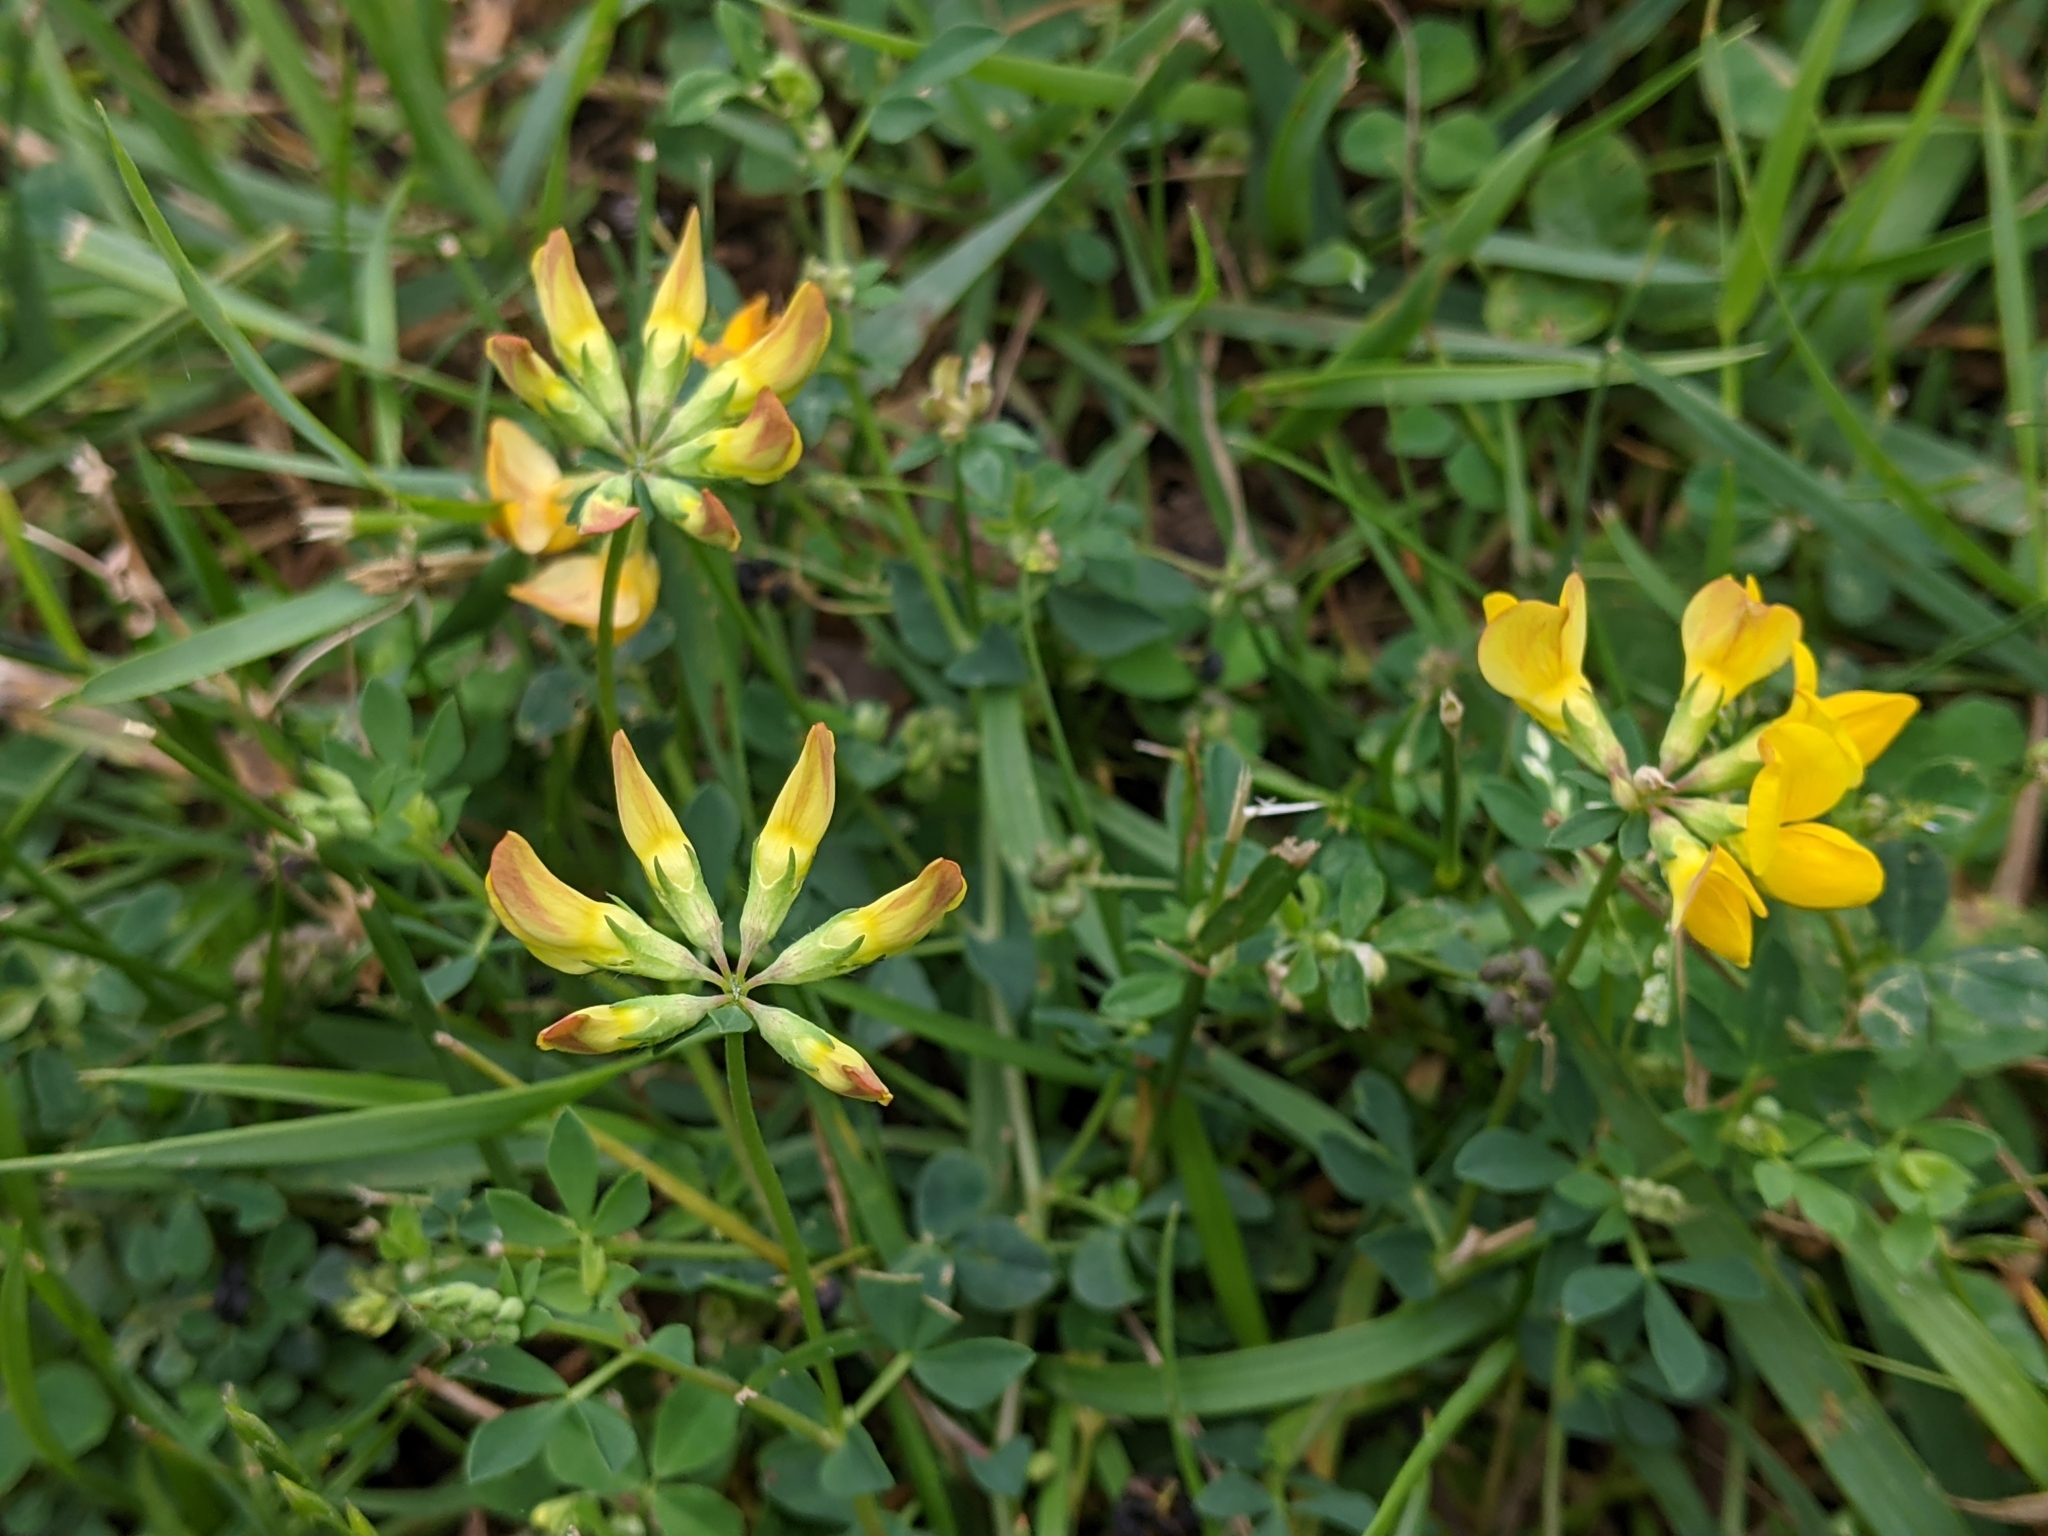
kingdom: Plantae
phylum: Tracheophyta
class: Magnoliopsida
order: Fabales
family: Fabaceae
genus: Lotus
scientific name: Lotus corniculatus
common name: Common bird's-foot-trefoil
